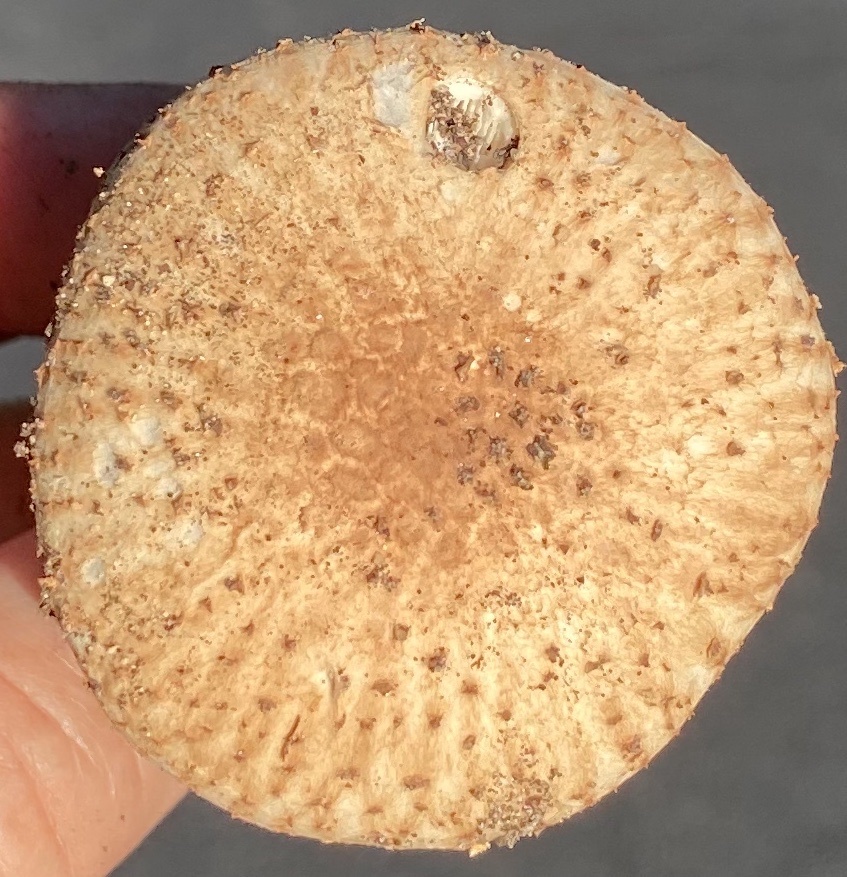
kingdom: Fungi
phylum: Basidiomycota
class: Agaricomycetes
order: Agaricales
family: Agaricaceae
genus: Echinoderma
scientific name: Echinoderma asperum
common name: Freckled dapperling
